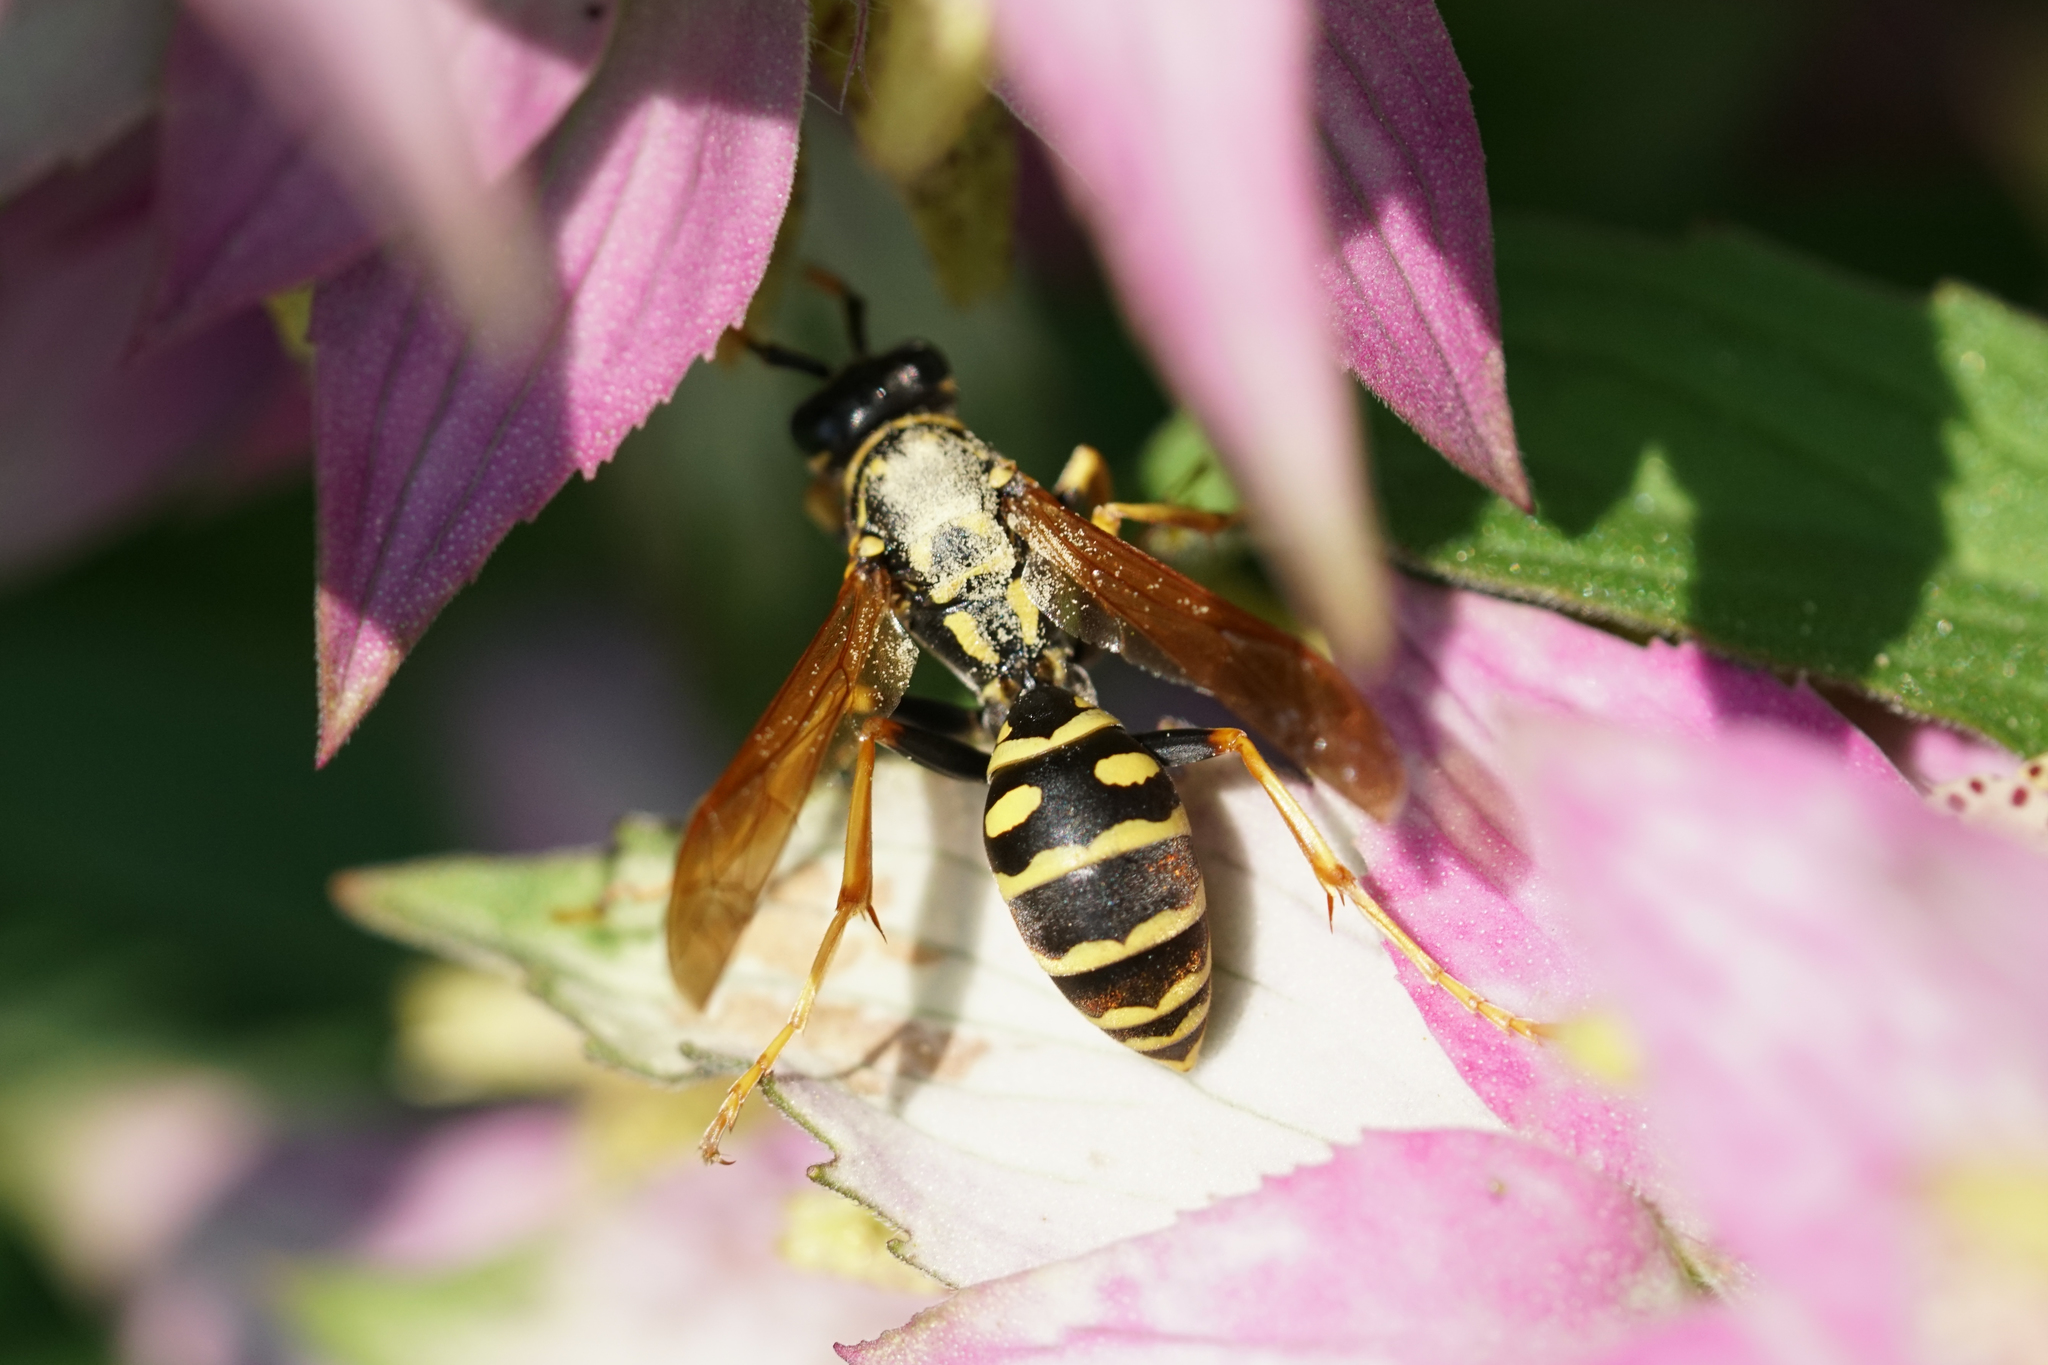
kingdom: Animalia
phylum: Arthropoda
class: Insecta
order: Hymenoptera
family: Eumenidae
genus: Polistes
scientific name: Polistes dominula
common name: Paper wasp
